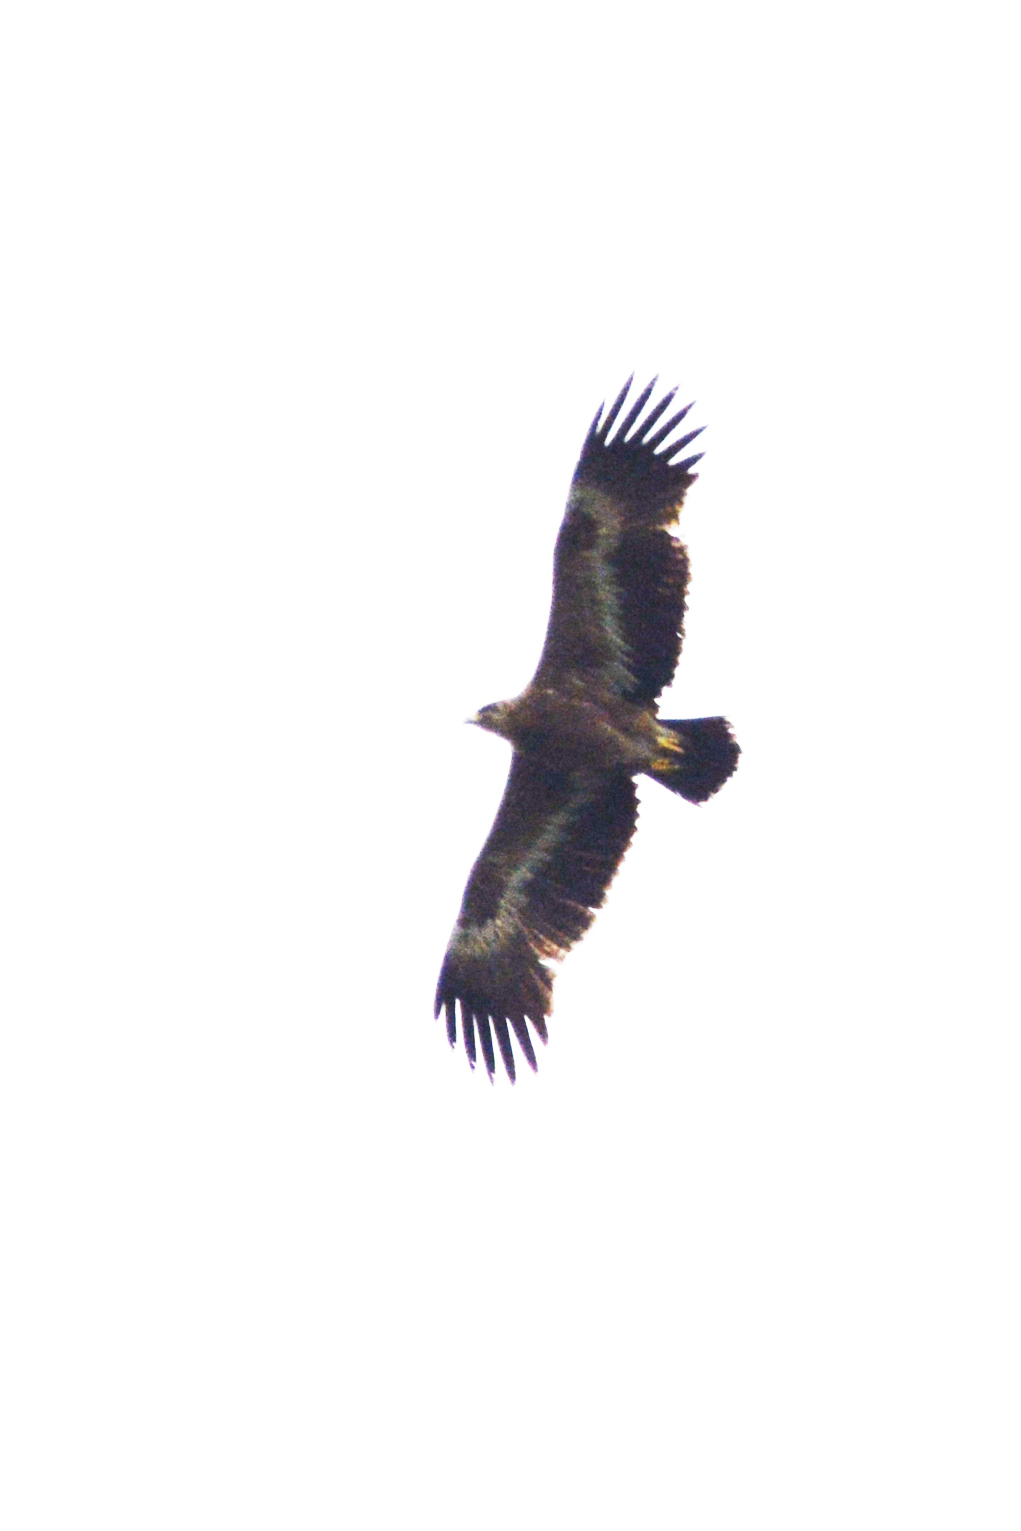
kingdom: Animalia
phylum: Chordata
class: Aves
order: Accipitriformes
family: Accipitridae
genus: Aquila
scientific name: Aquila nipalensis
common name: Steppe eagle
